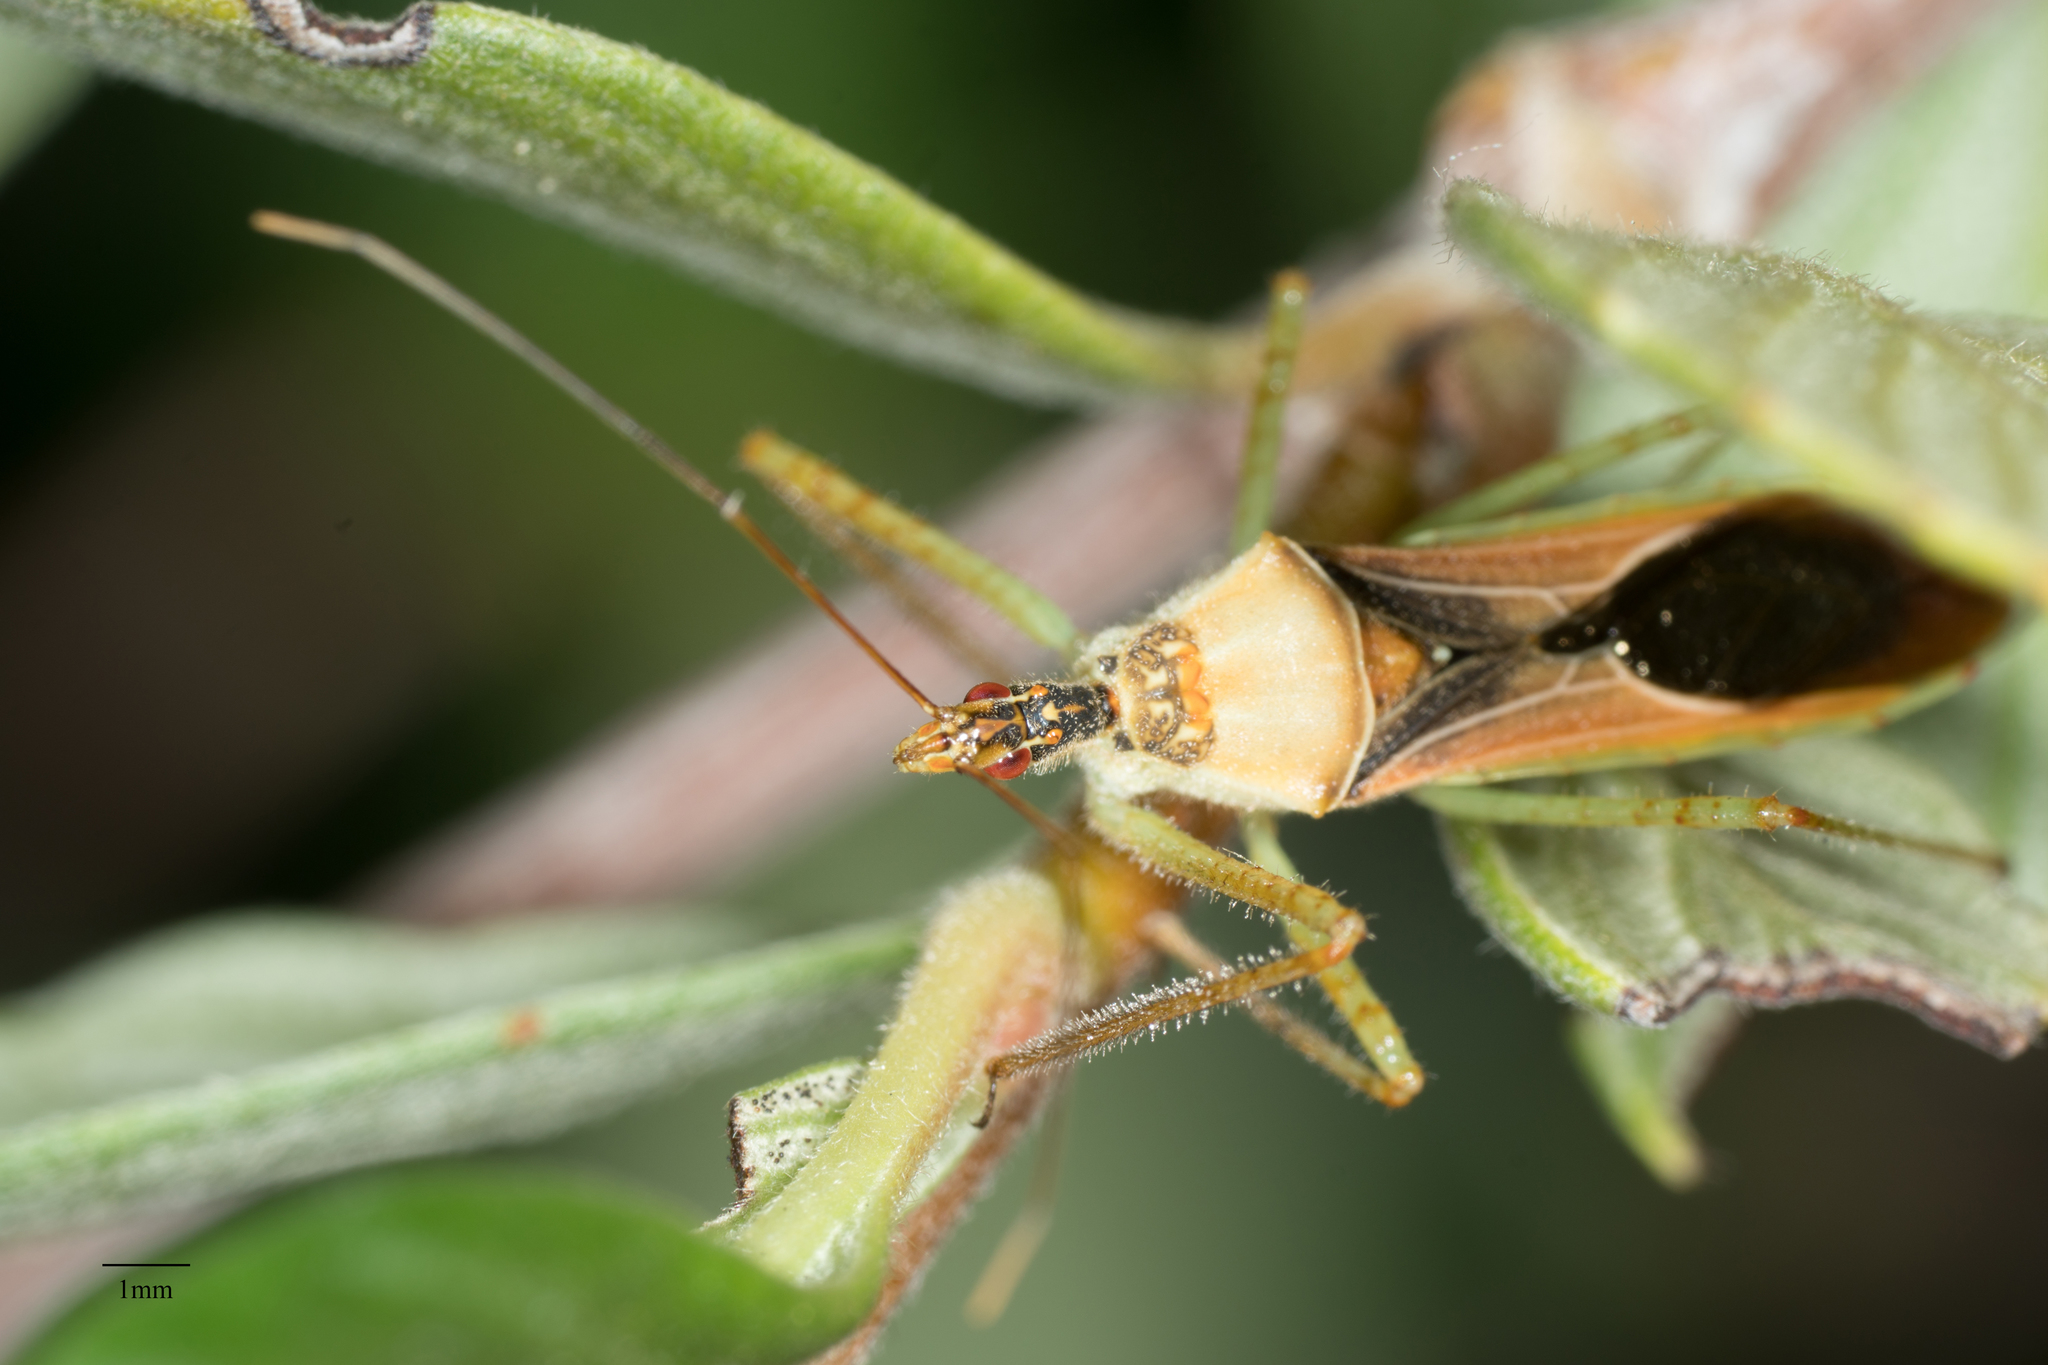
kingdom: Animalia
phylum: Arthropoda
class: Insecta
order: Hemiptera
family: Reduviidae
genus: Zelus
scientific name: Zelus renardii
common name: Assassin bug
